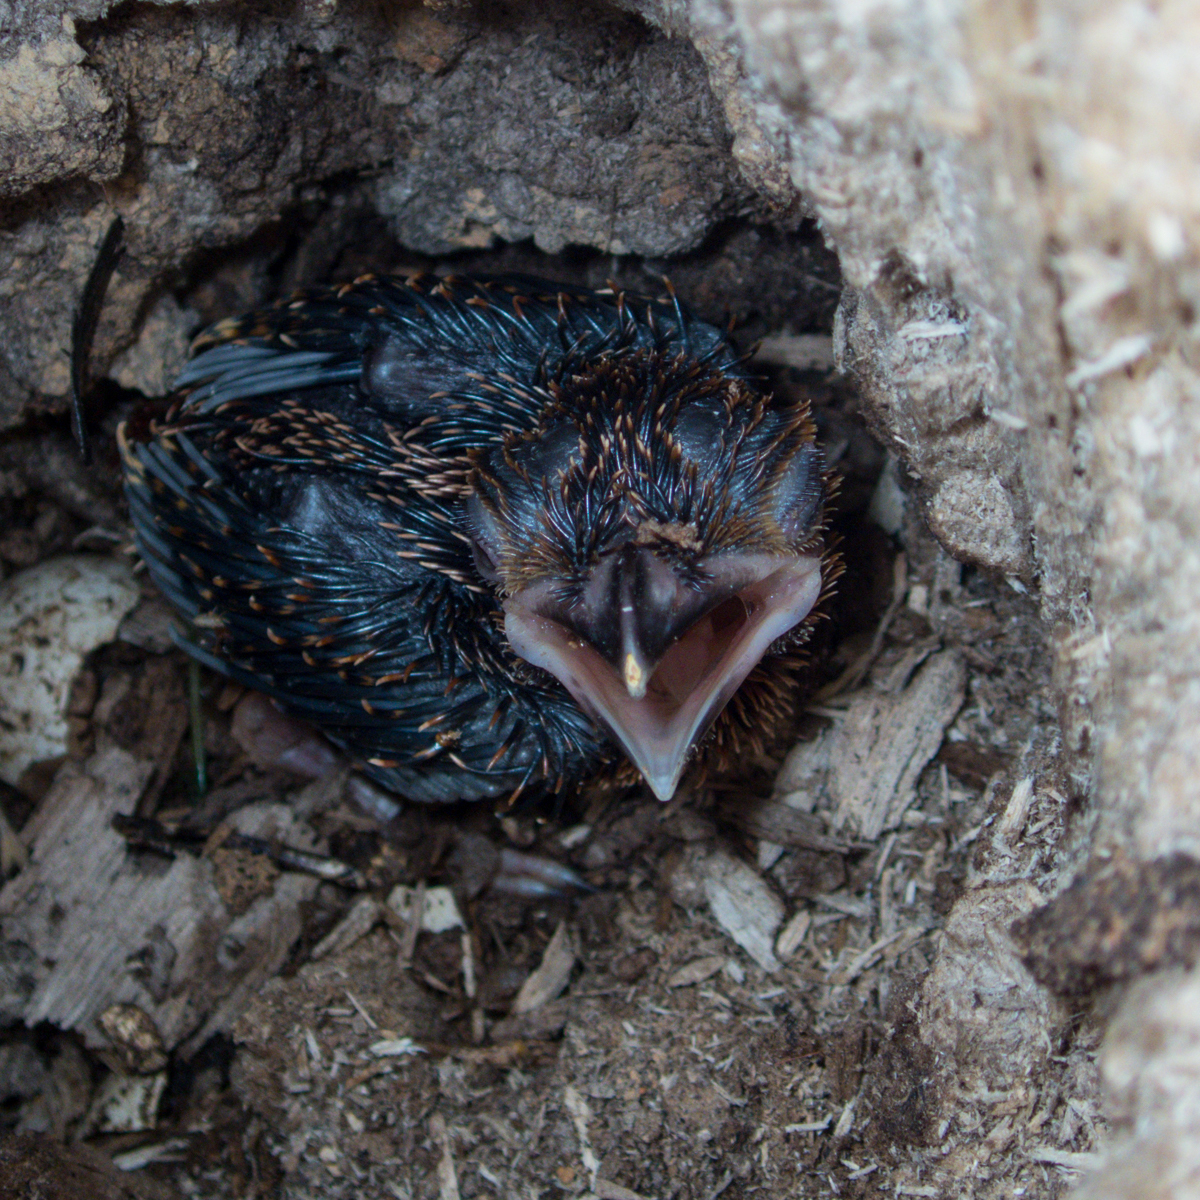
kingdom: Animalia
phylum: Chordata
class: Aves
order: Trogoniformes
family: Trogonidae
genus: Harpactes
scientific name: Harpactes erythrocephalus
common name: Red-headed trogon
